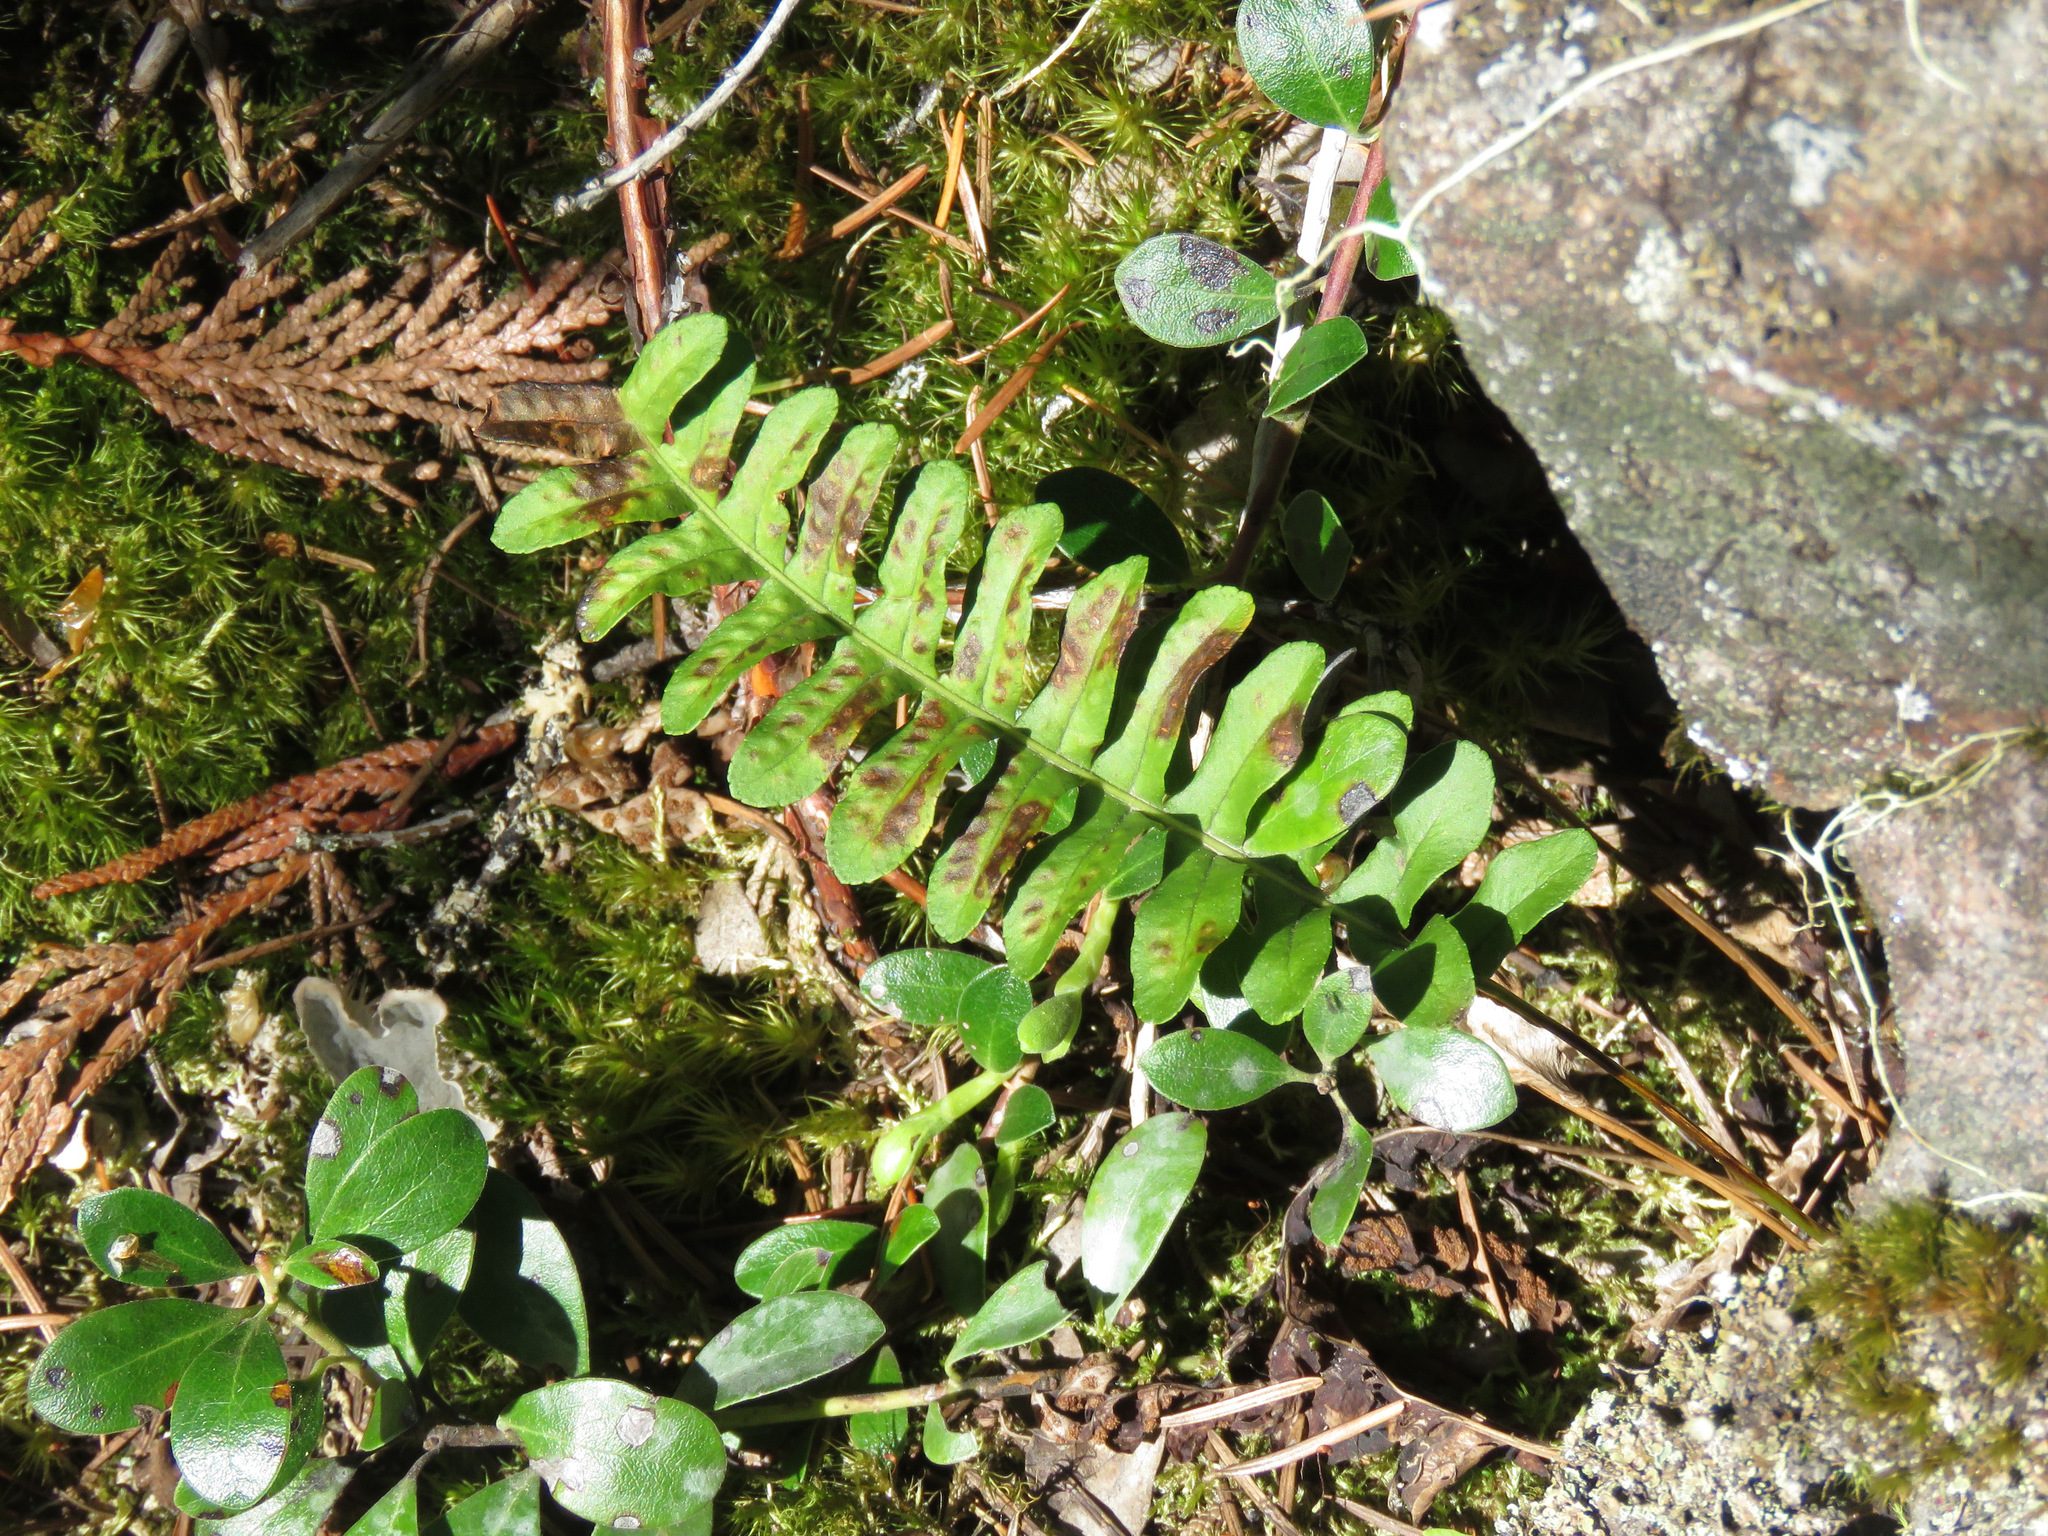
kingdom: Plantae
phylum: Tracheophyta
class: Polypodiopsida
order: Polypodiales
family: Polypodiaceae
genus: Polypodium
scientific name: Polypodium hesperium
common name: Western polypody
